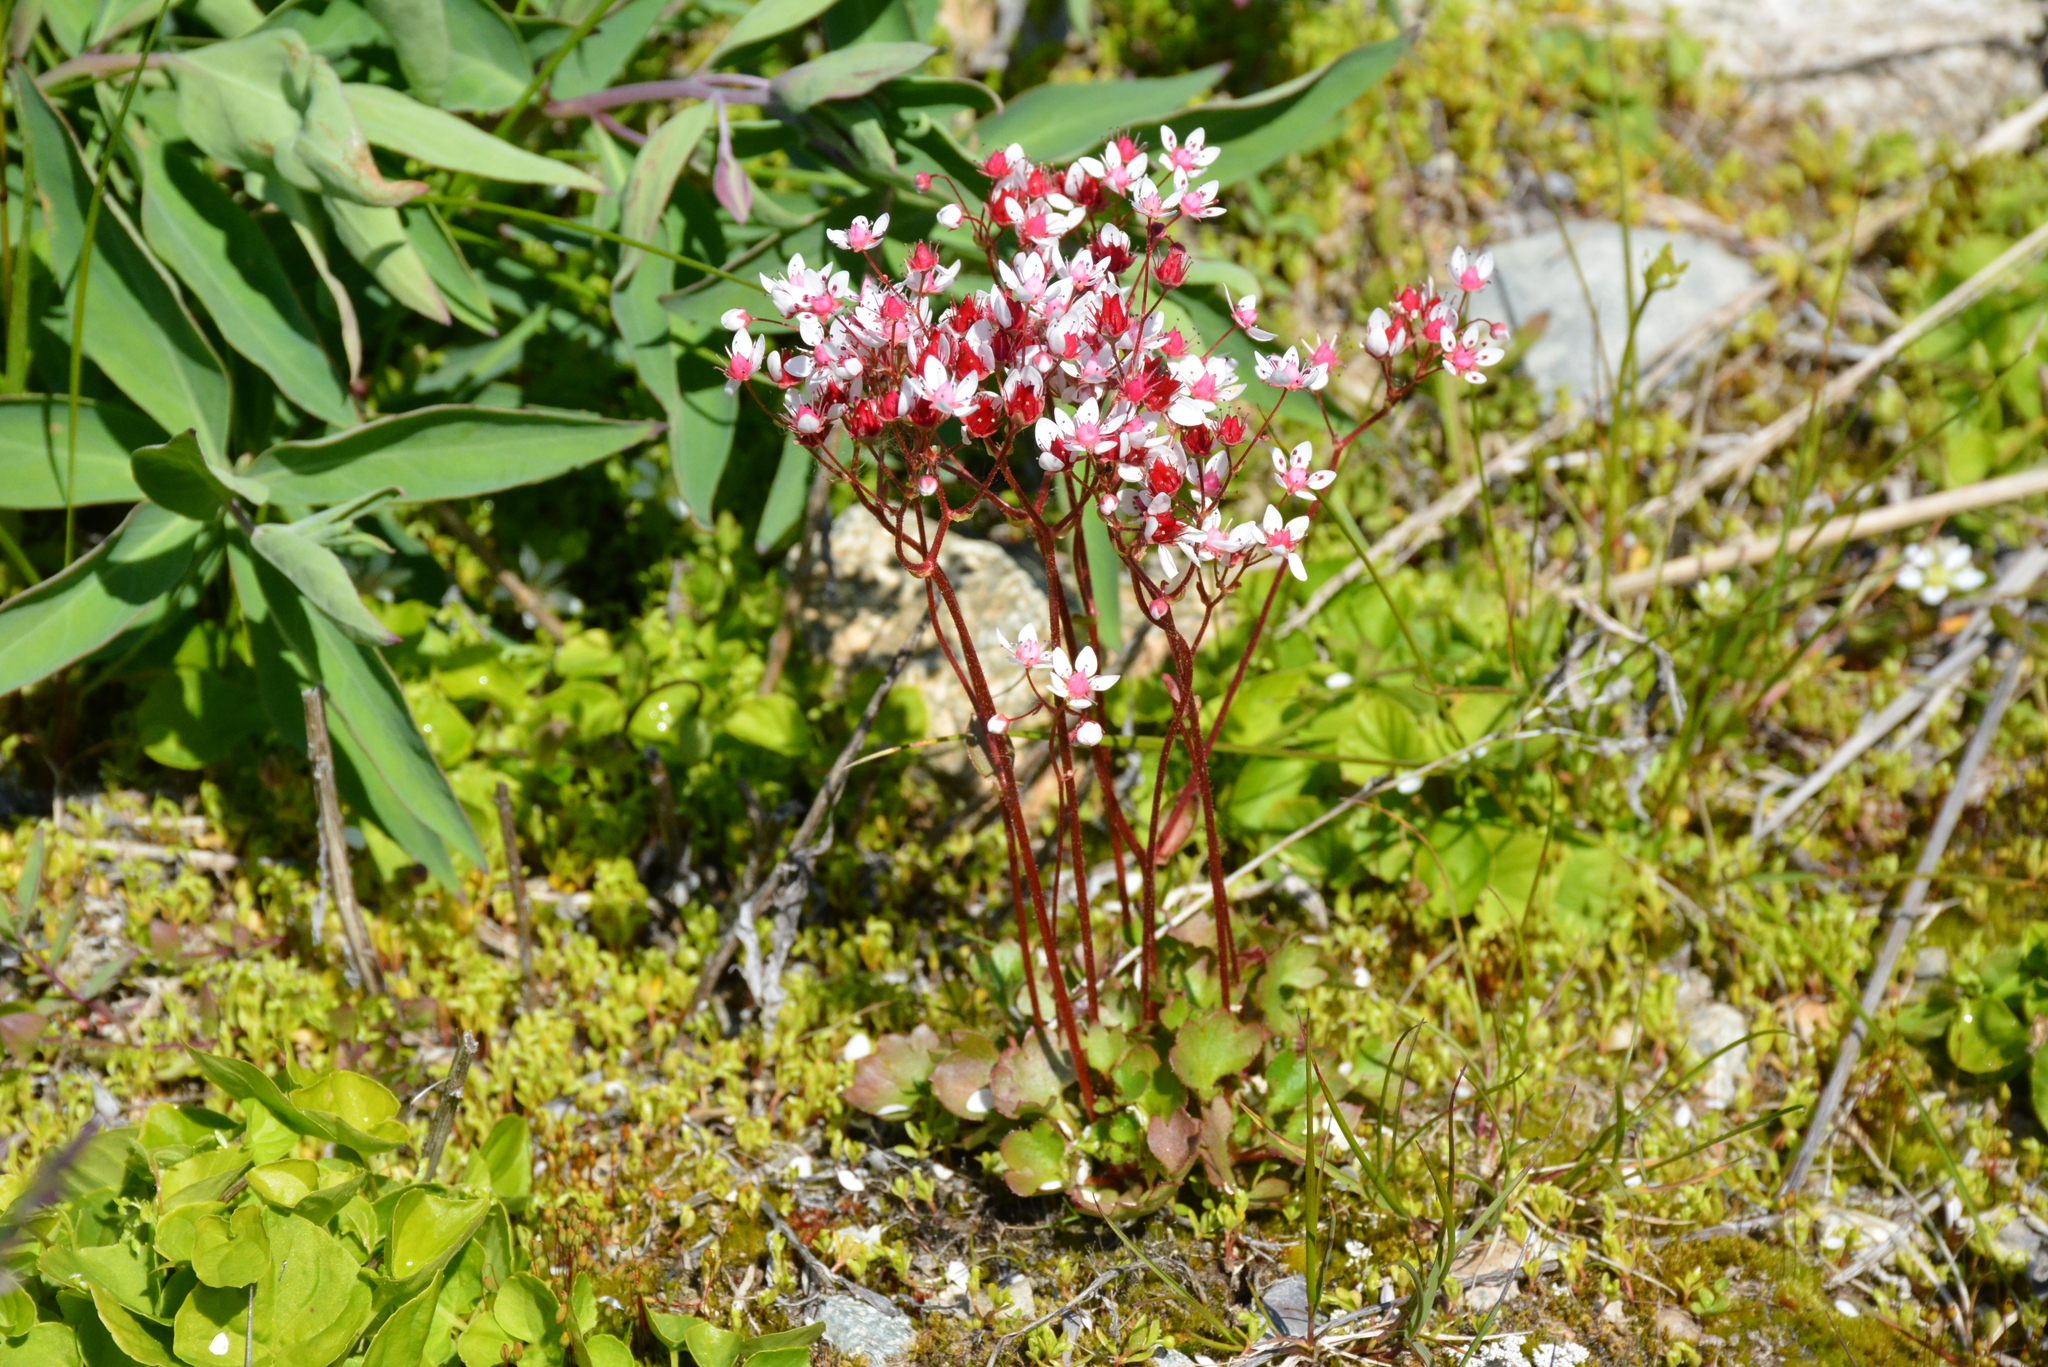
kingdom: Plantae
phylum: Tracheophyta
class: Magnoliopsida
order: Saxifragales
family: Saxifragaceae
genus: Micranthes
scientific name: Micranthes nudicaulis
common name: Nakedstem saxifrage
